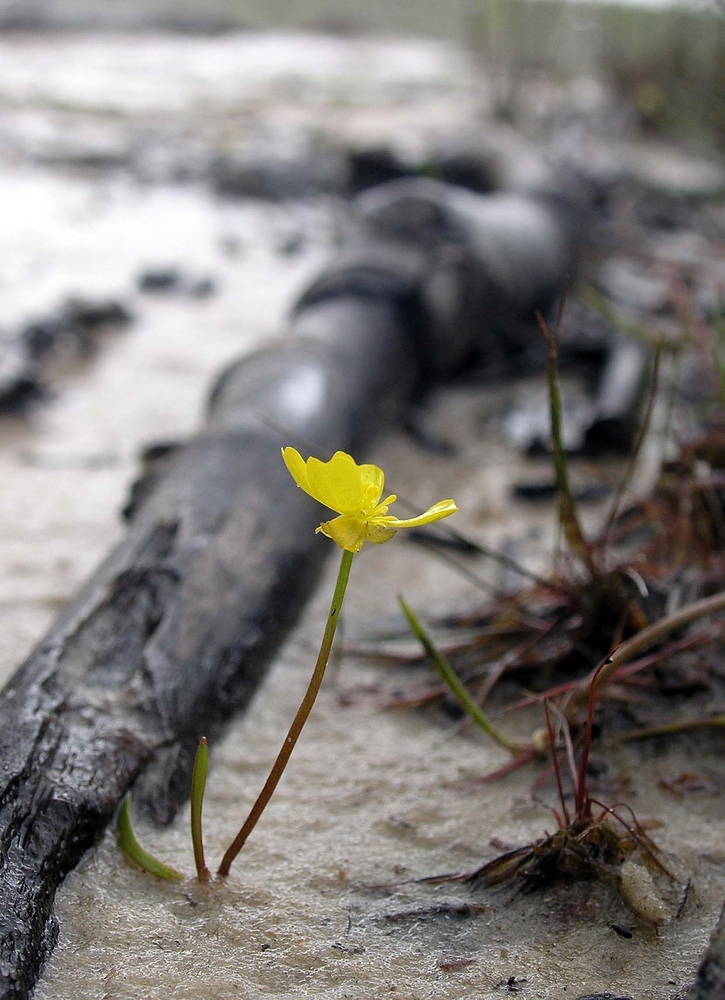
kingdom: Plantae
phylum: Tracheophyta
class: Magnoliopsida
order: Ranunculales
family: Ranunculaceae
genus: Ranunculus
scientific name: Ranunculus flammula
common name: Lesser spearwort
